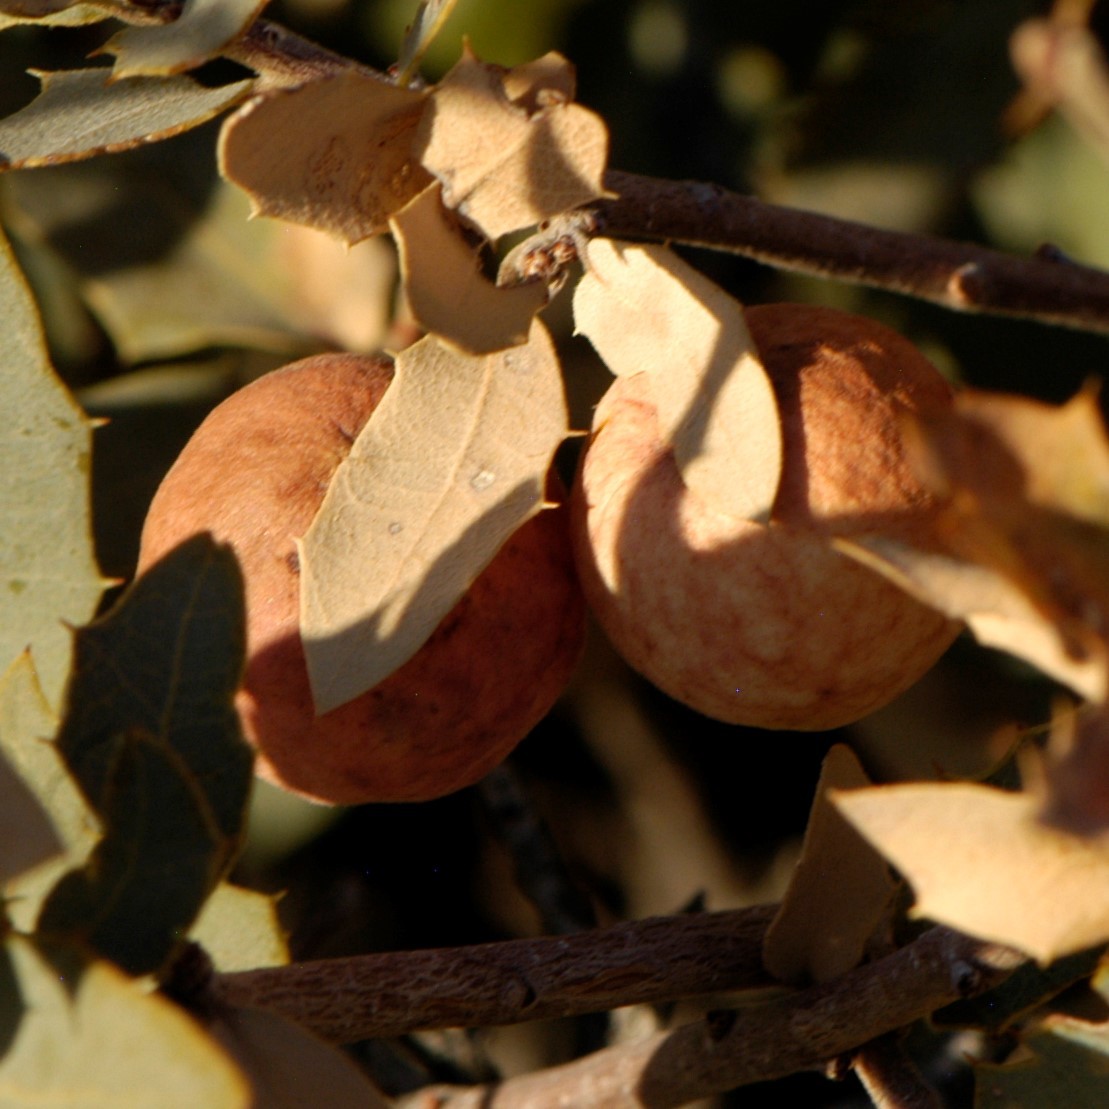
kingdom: Animalia
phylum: Arthropoda
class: Insecta
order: Hymenoptera
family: Cynipidae
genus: Atrusca
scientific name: Atrusca
